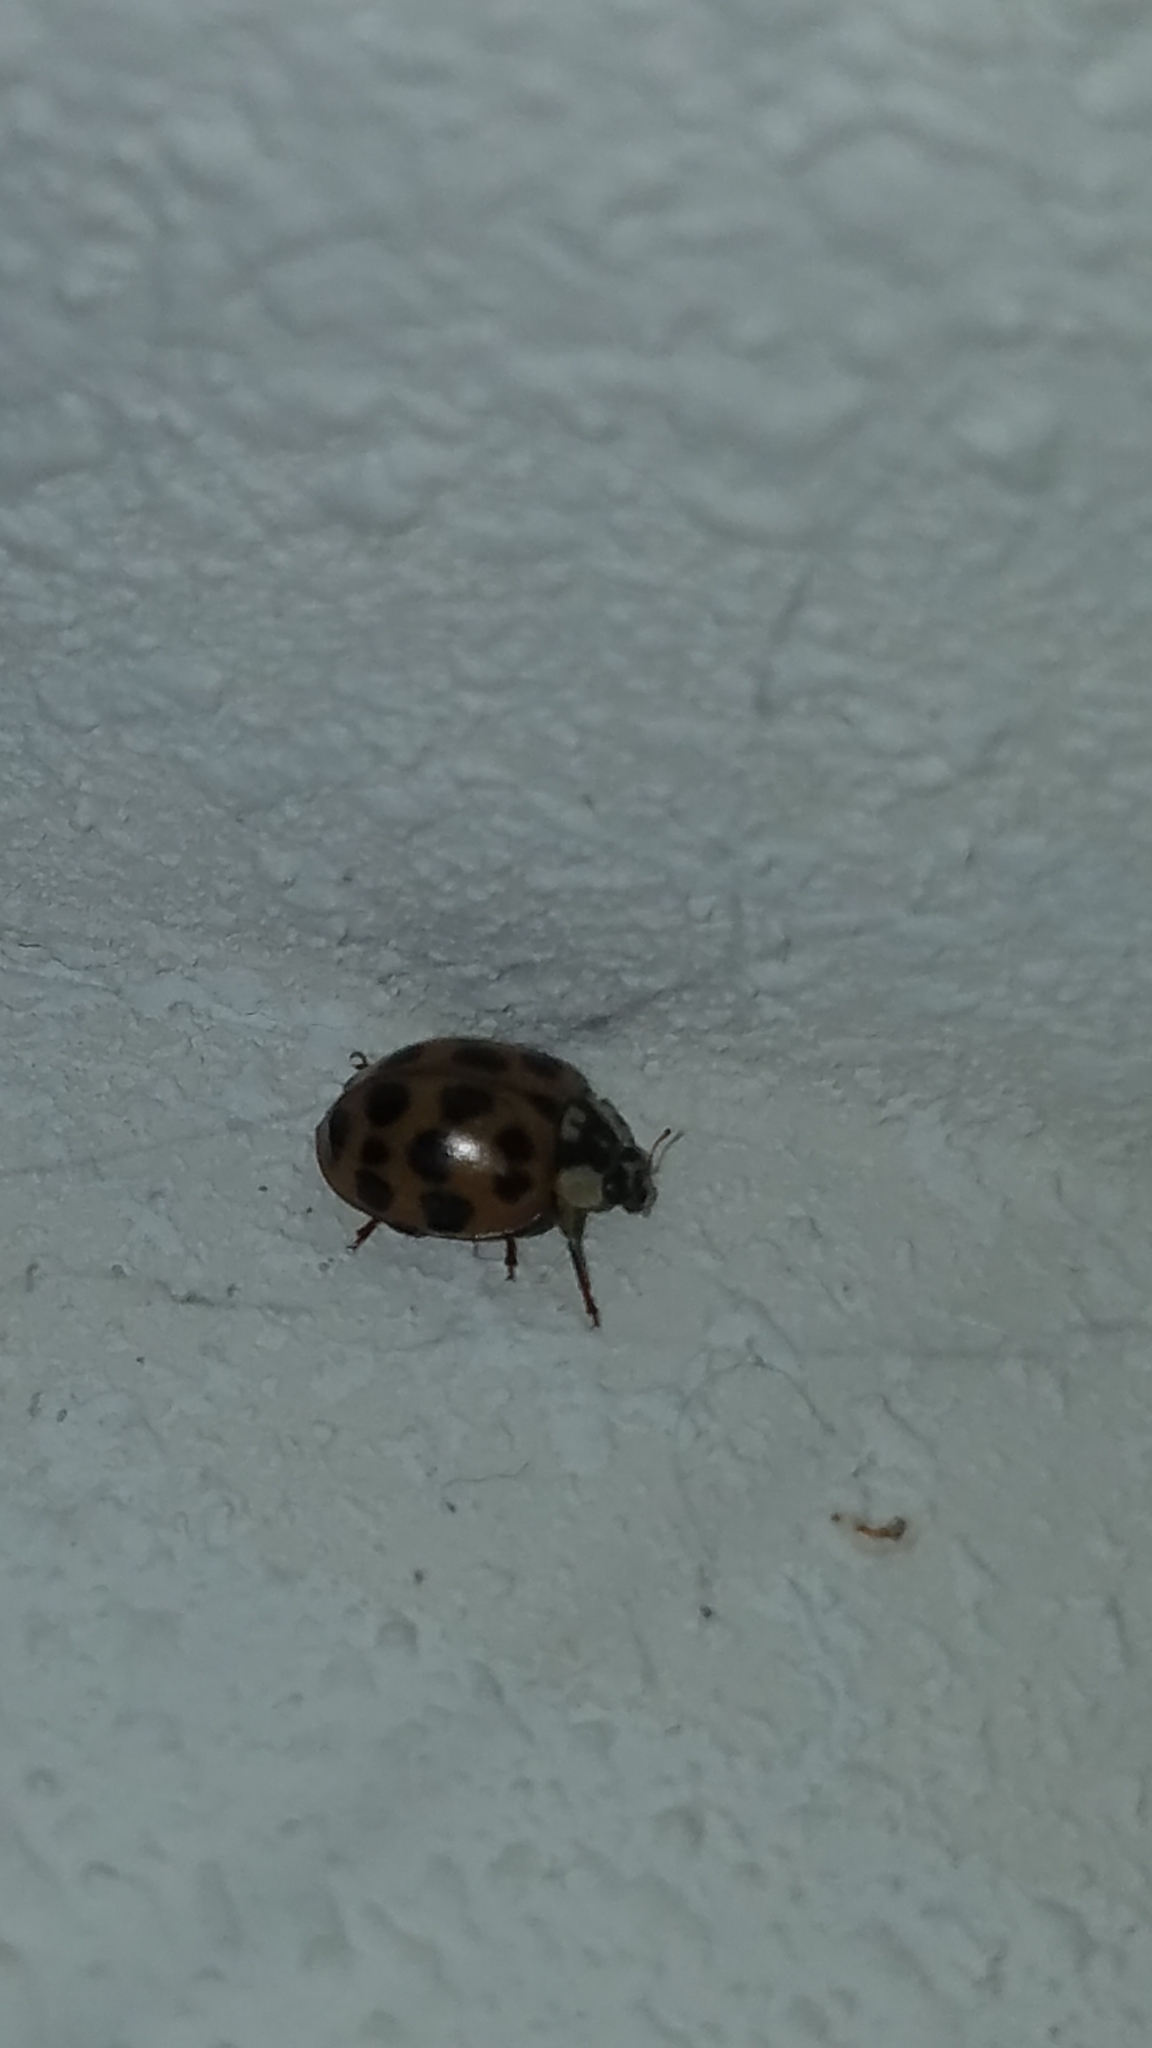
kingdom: Animalia
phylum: Arthropoda
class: Insecta
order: Coleoptera
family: Coccinellidae
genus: Harmonia
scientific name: Harmonia axyridis
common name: Harlequin ladybird
